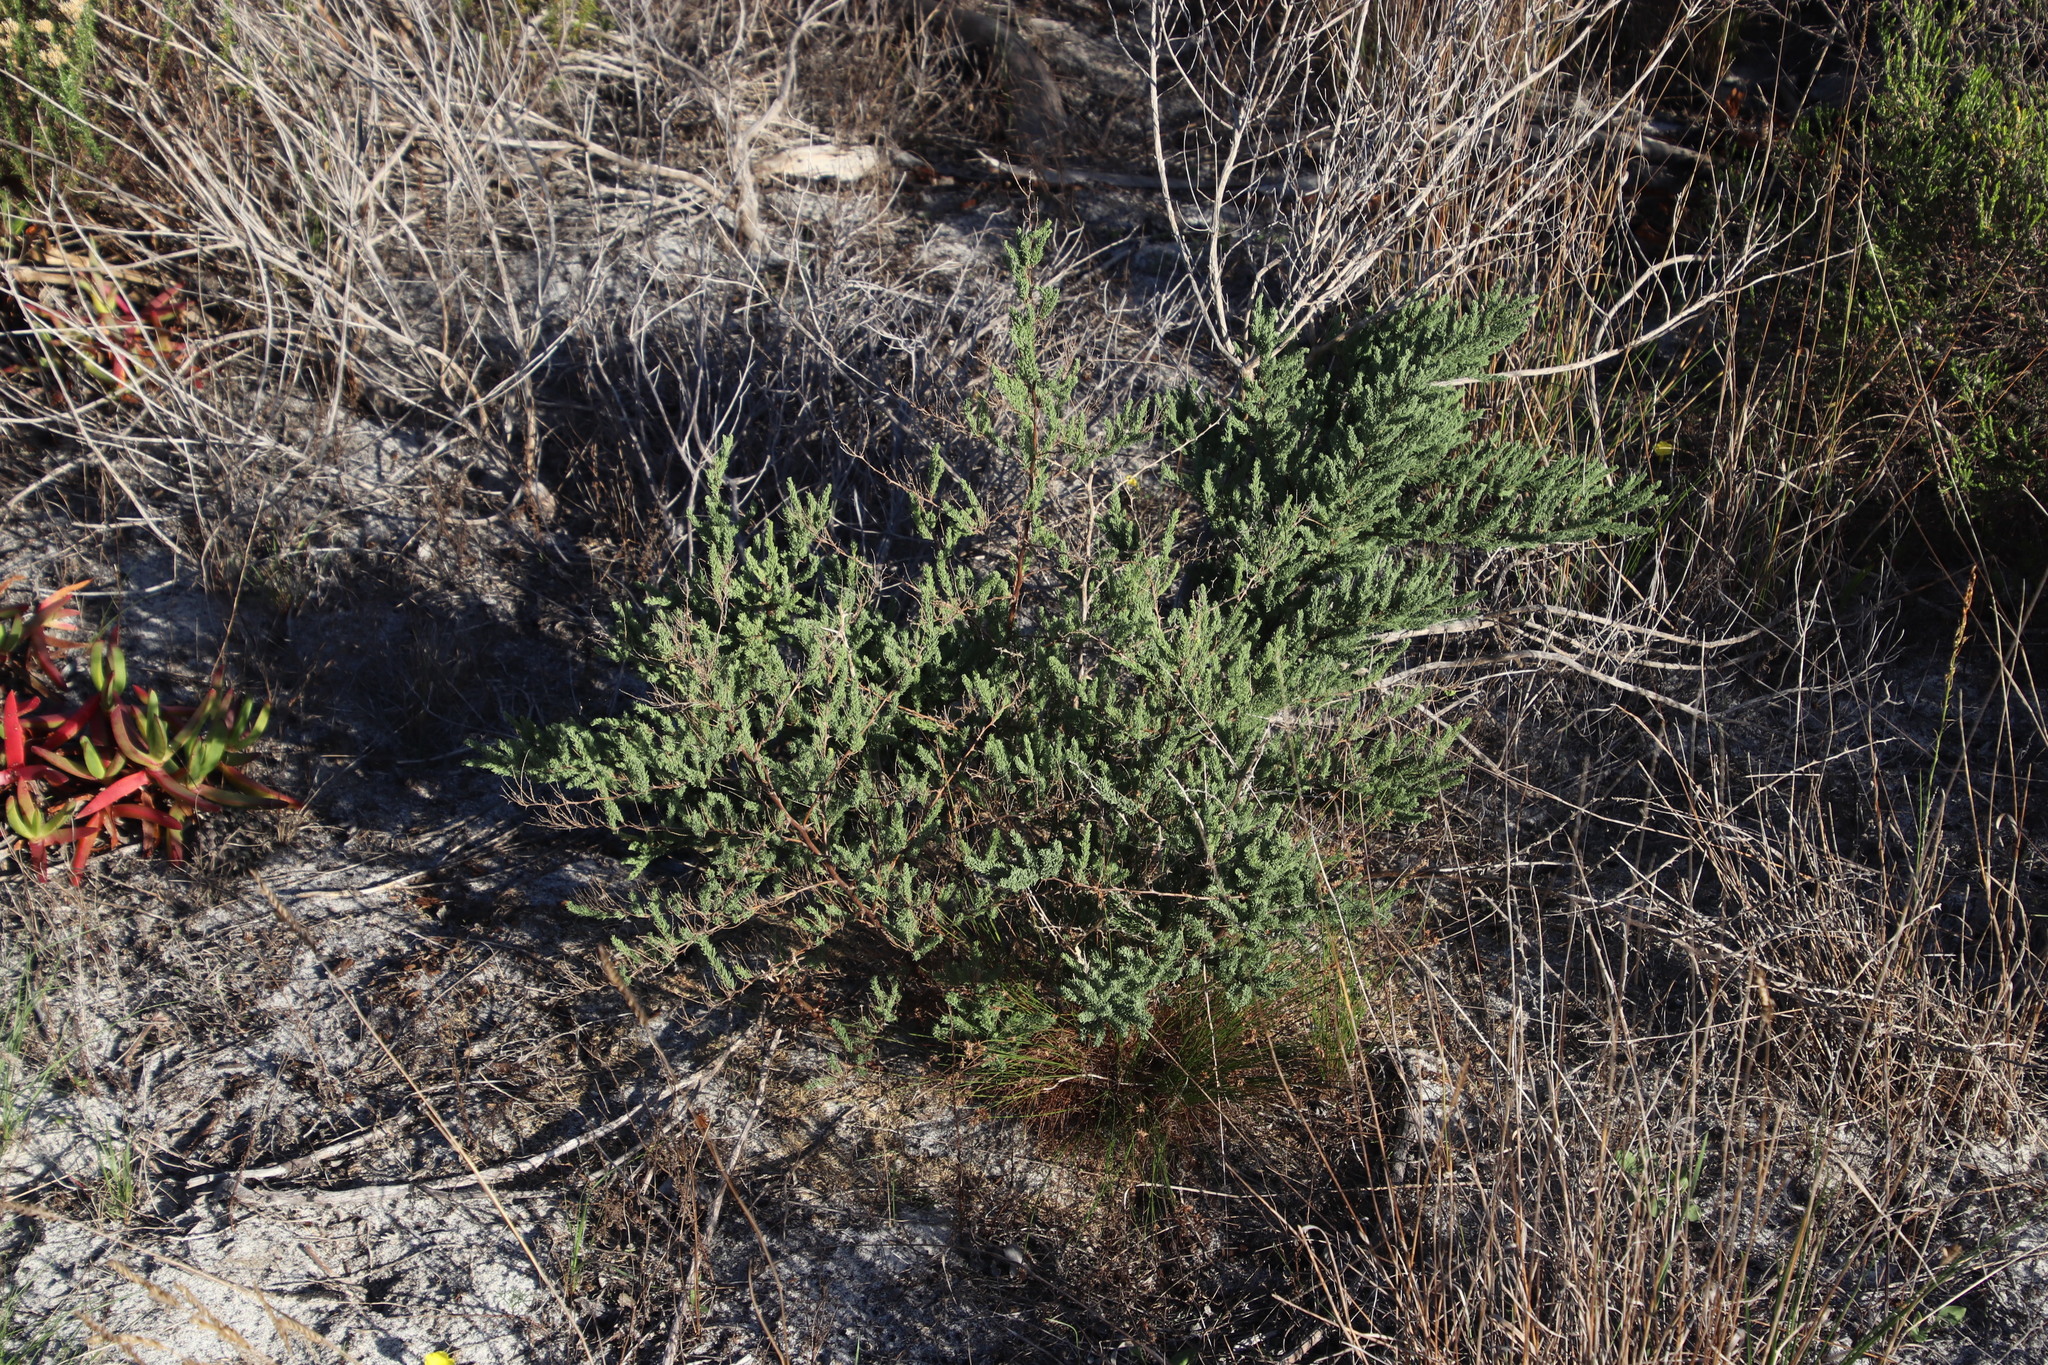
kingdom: Plantae
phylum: Tracheophyta
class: Liliopsida
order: Asparagales
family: Asparagaceae
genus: Asparagus
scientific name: Asparagus rubicundus
